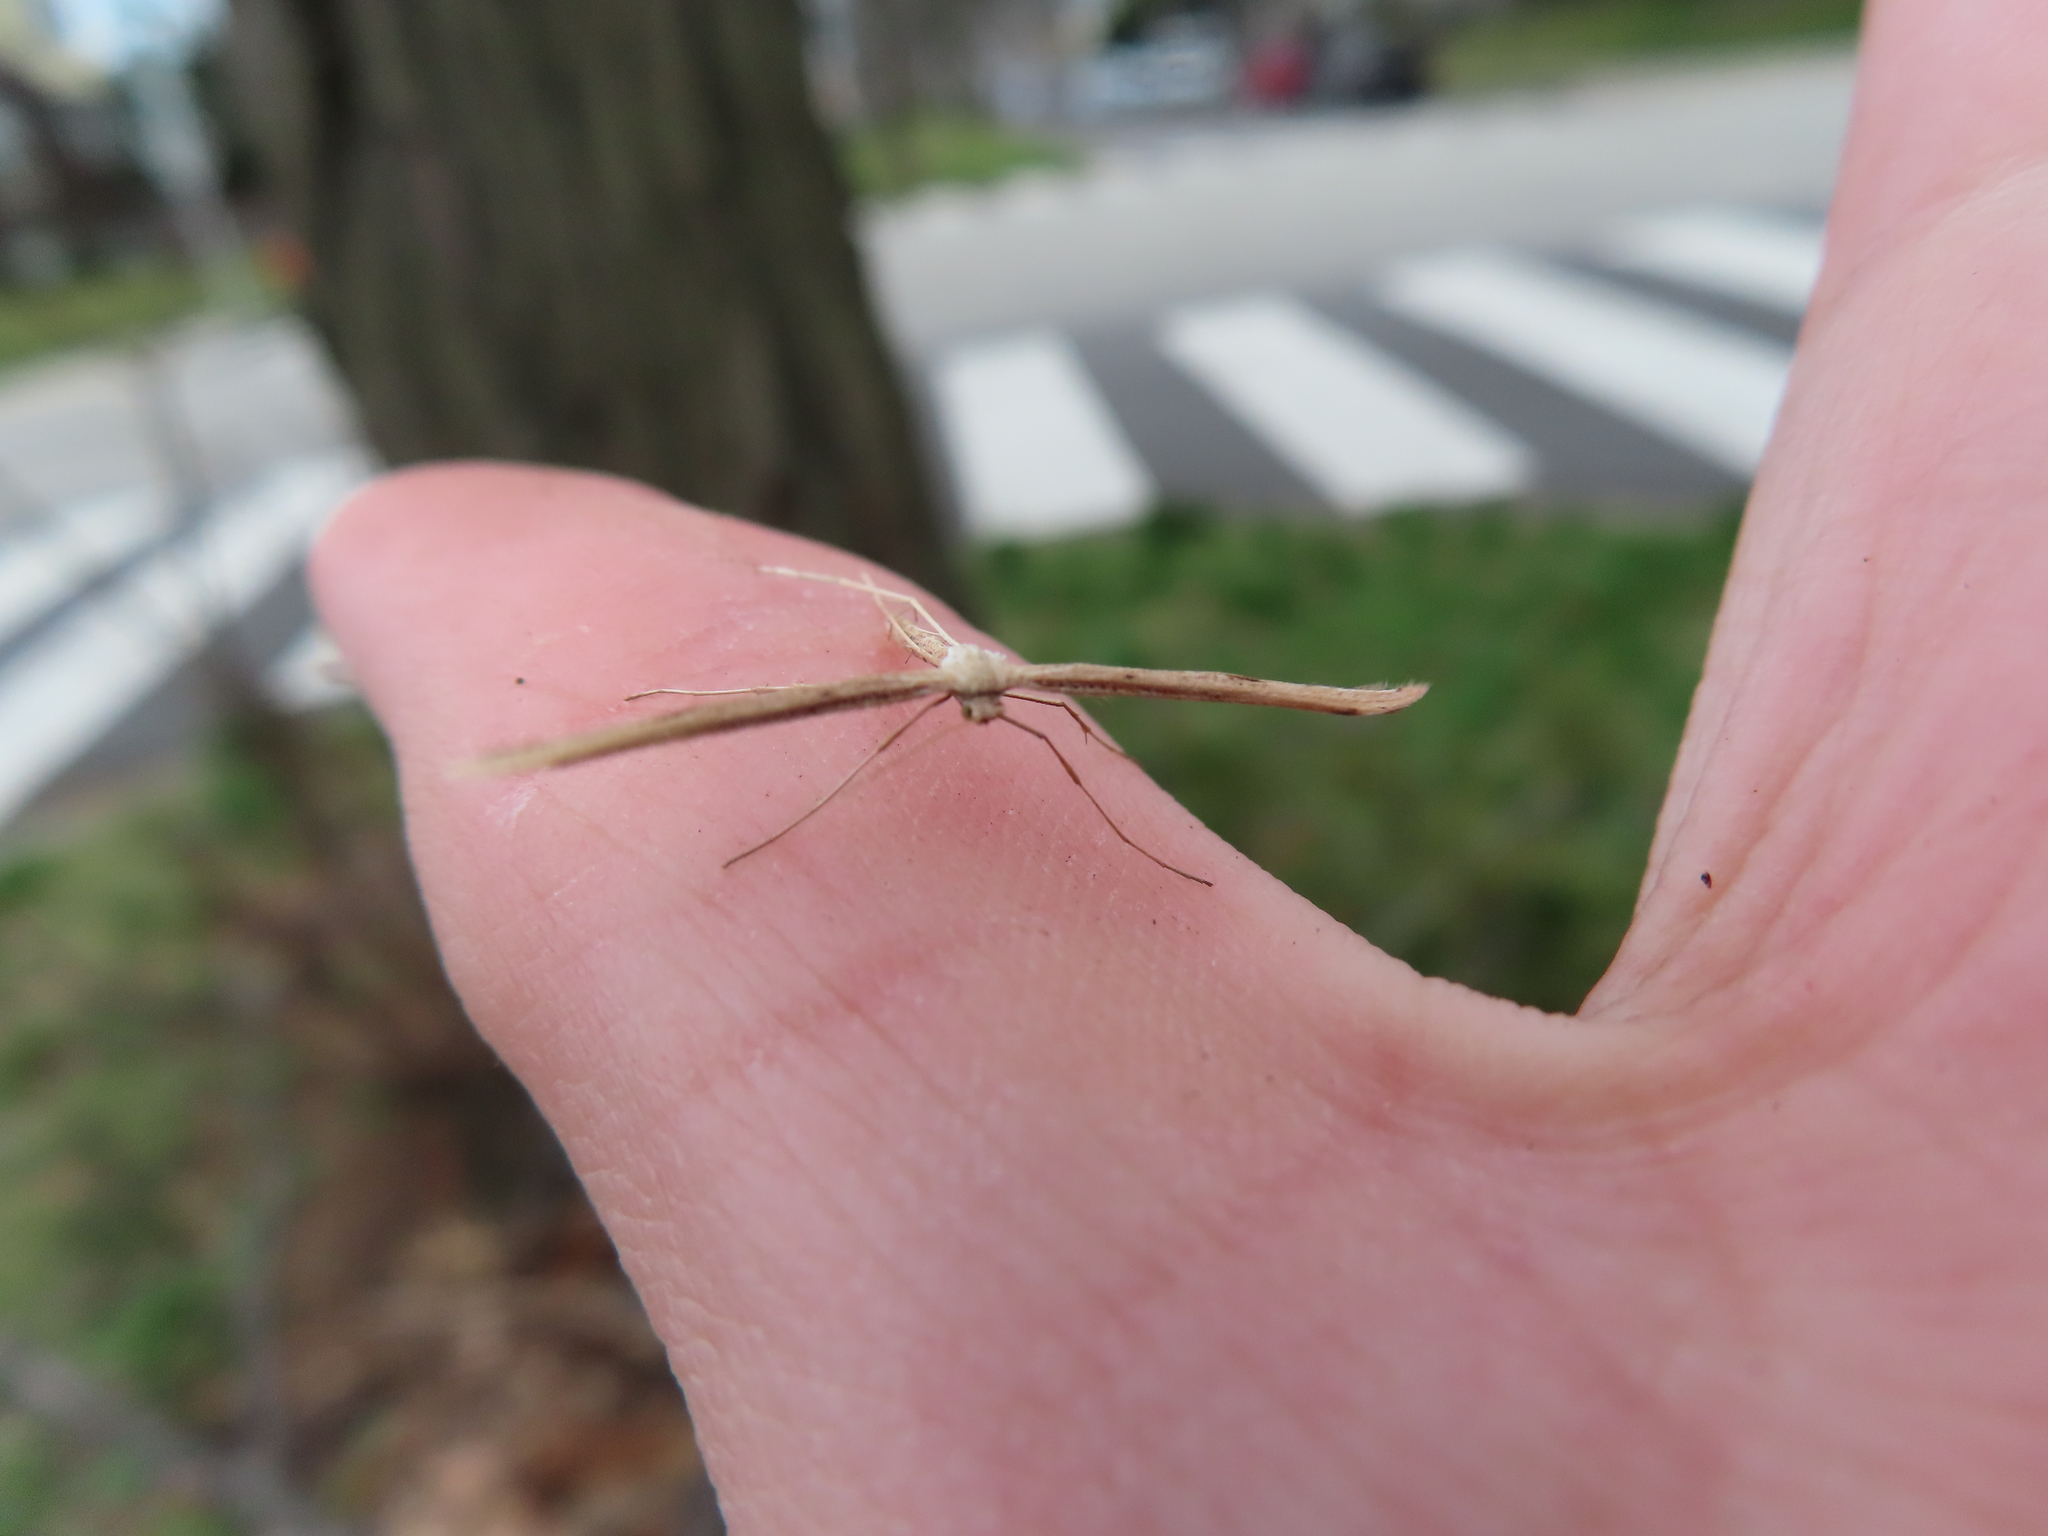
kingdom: Animalia
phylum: Arthropoda
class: Insecta
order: Lepidoptera
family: Pterophoridae
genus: Emmelina
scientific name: Emmelina monodactyla
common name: Common plume
